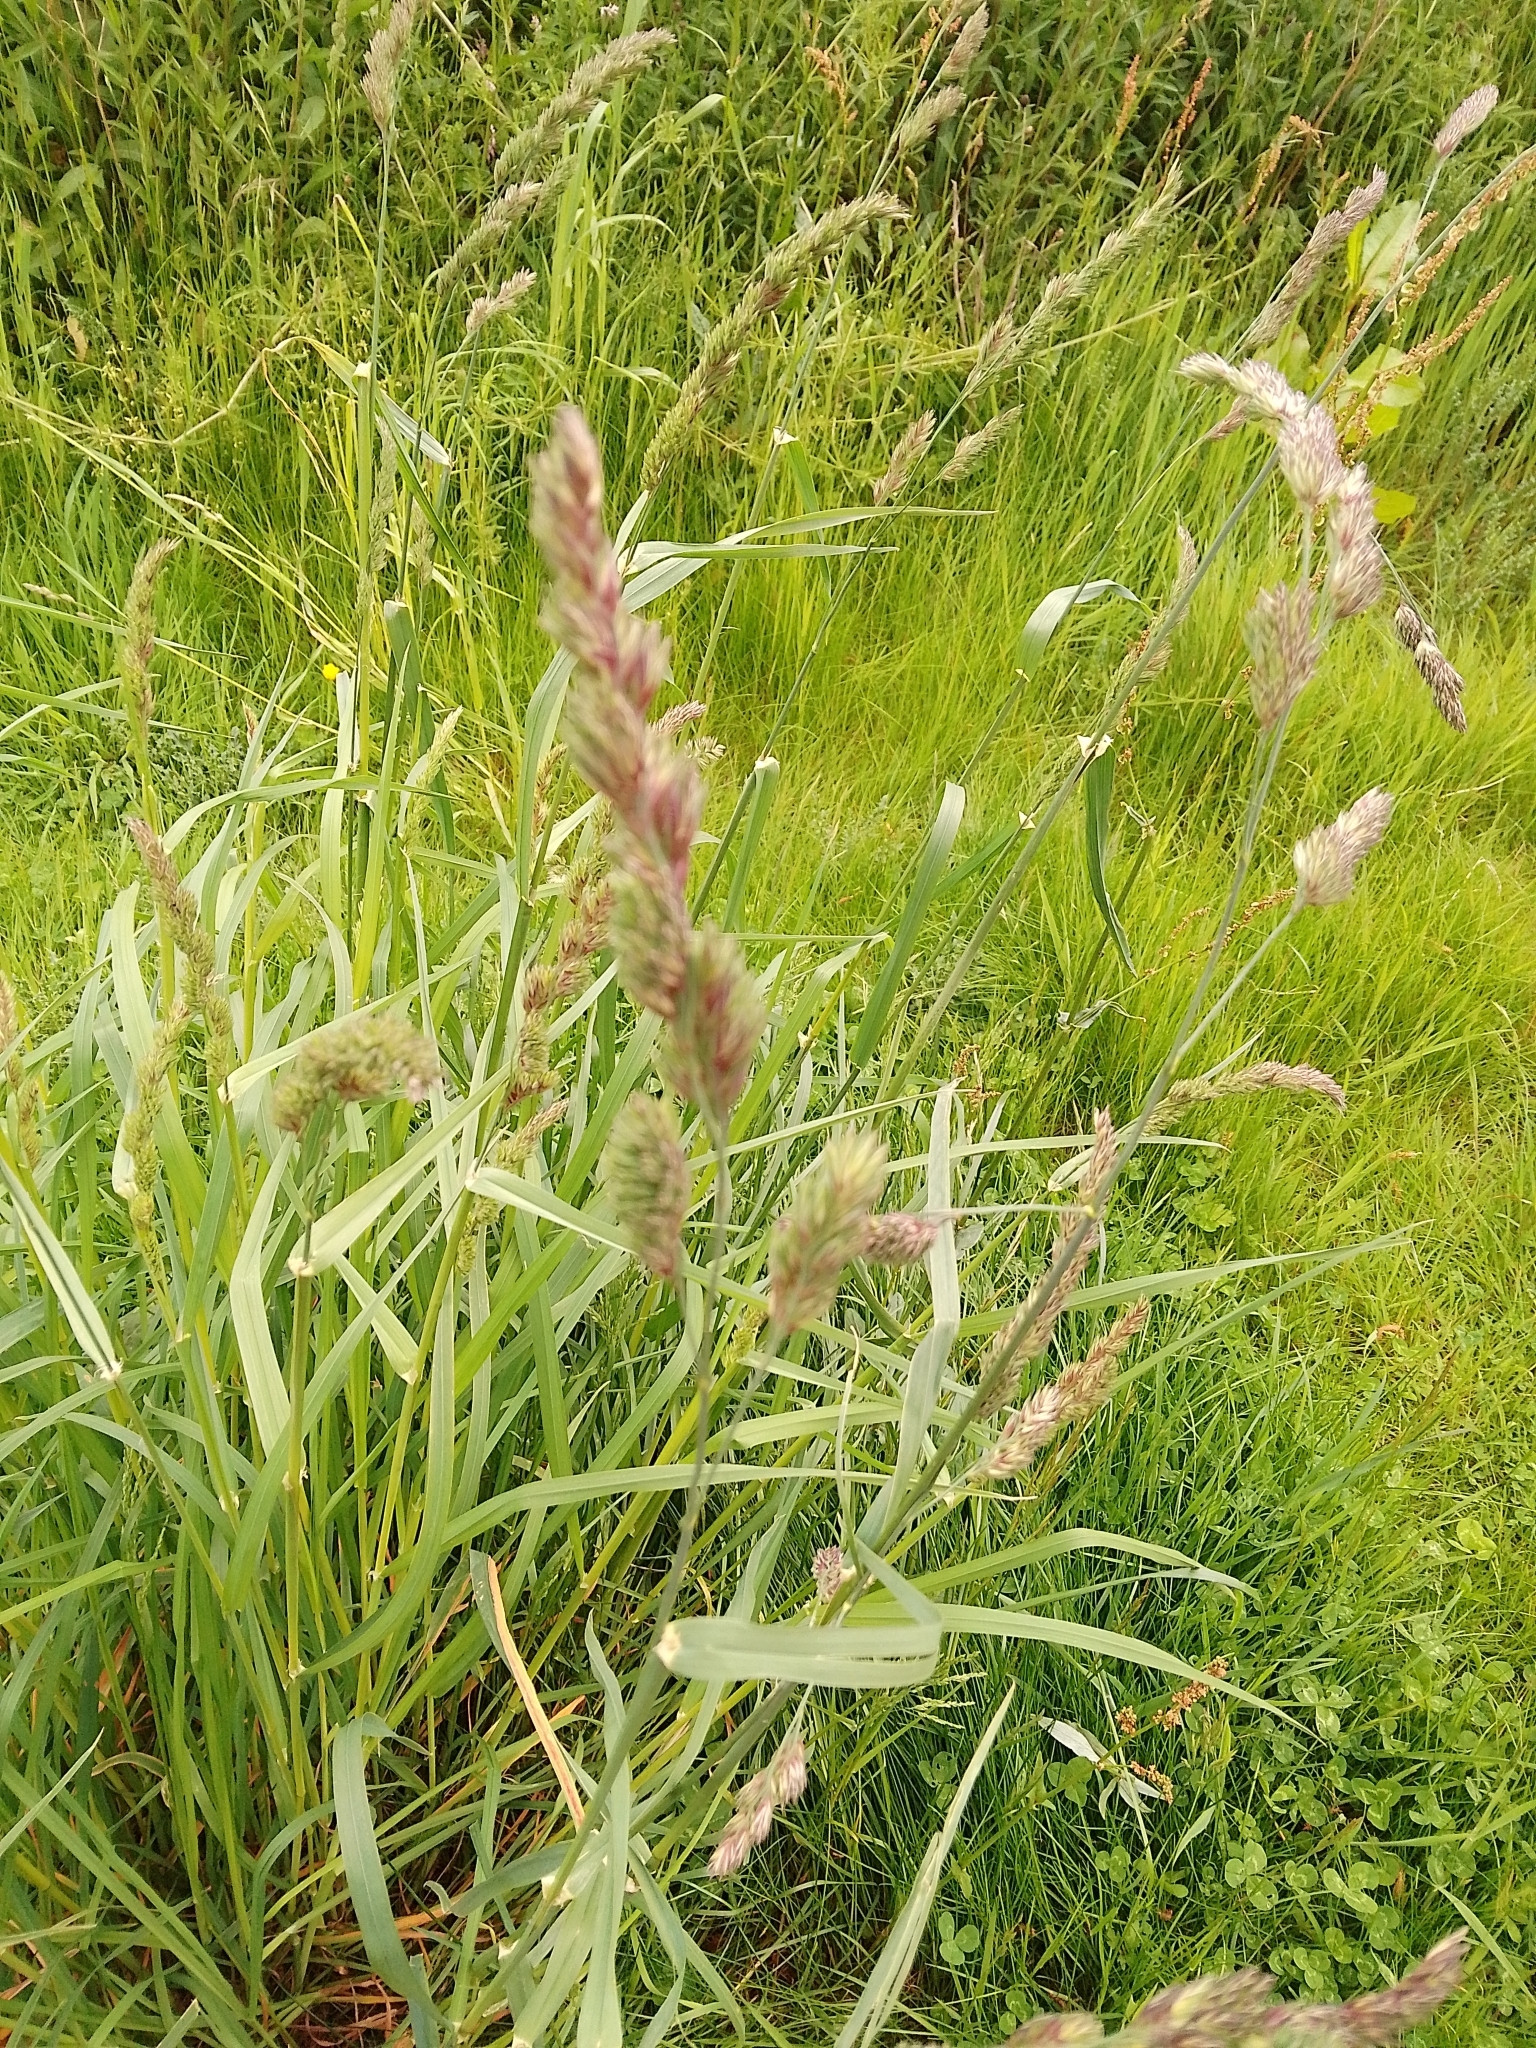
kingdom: Plantae
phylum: Tracheophyta
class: Liliopsida
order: Poales
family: Poaceae
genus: Dactylis
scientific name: Dactylis glomerata
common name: Orchardgrass
